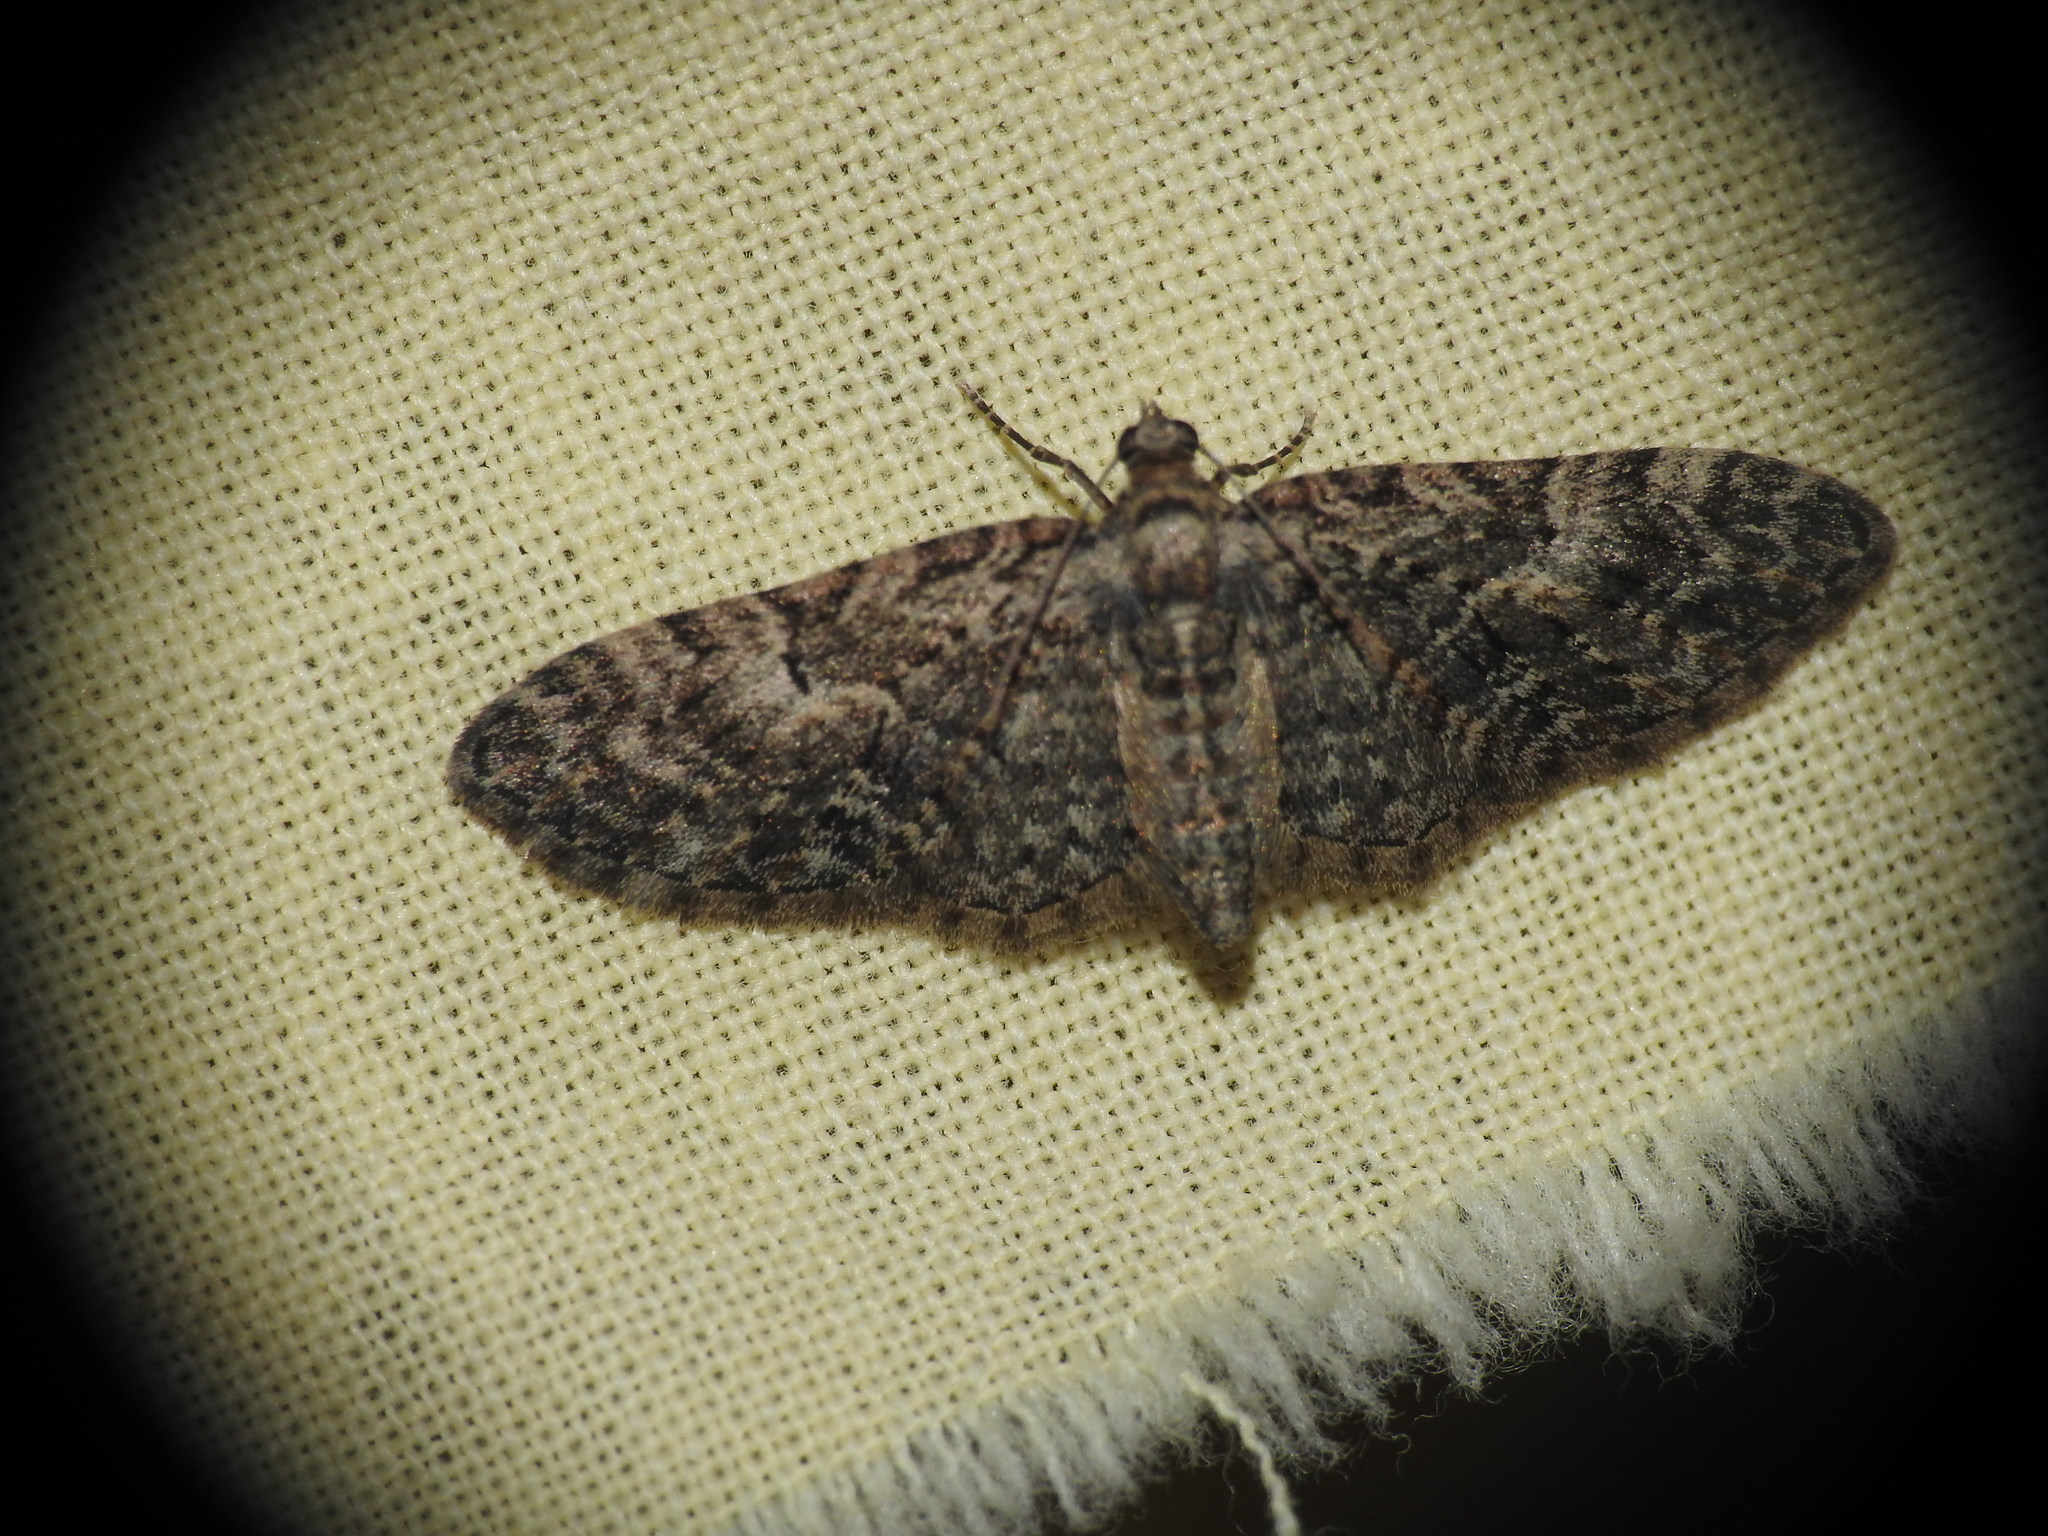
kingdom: Animalia
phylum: Arthropoda
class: Insecta
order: Lepidoptera
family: Geometridae
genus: Eupithecia
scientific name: Eupithecia abbreviata
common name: Brindled pug
